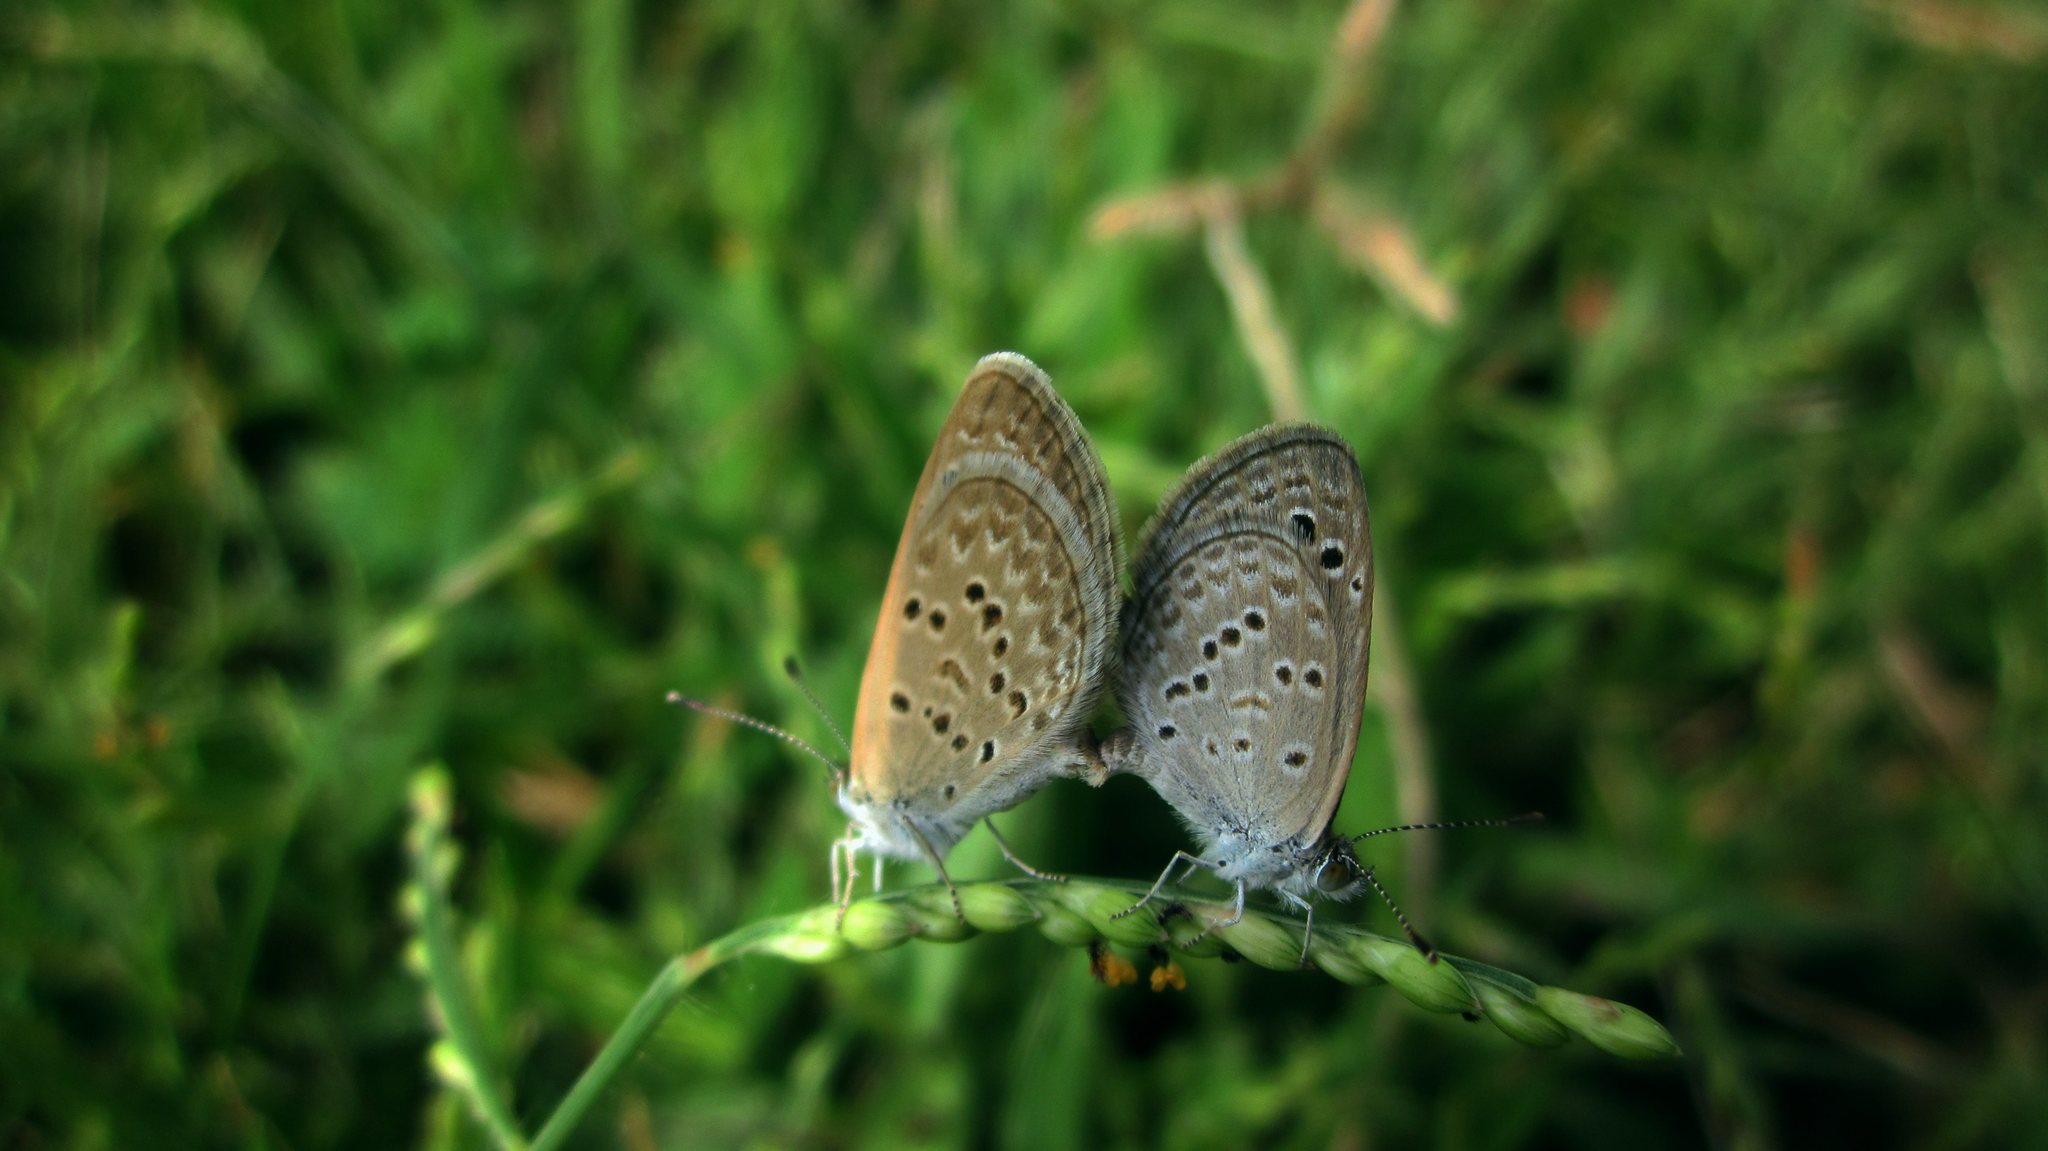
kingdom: Animalia
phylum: Arthropoda
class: Insecta
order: Lepidoptera
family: Lycaenidae
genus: Zizina
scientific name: Zizina otis
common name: Lesser grass blue
